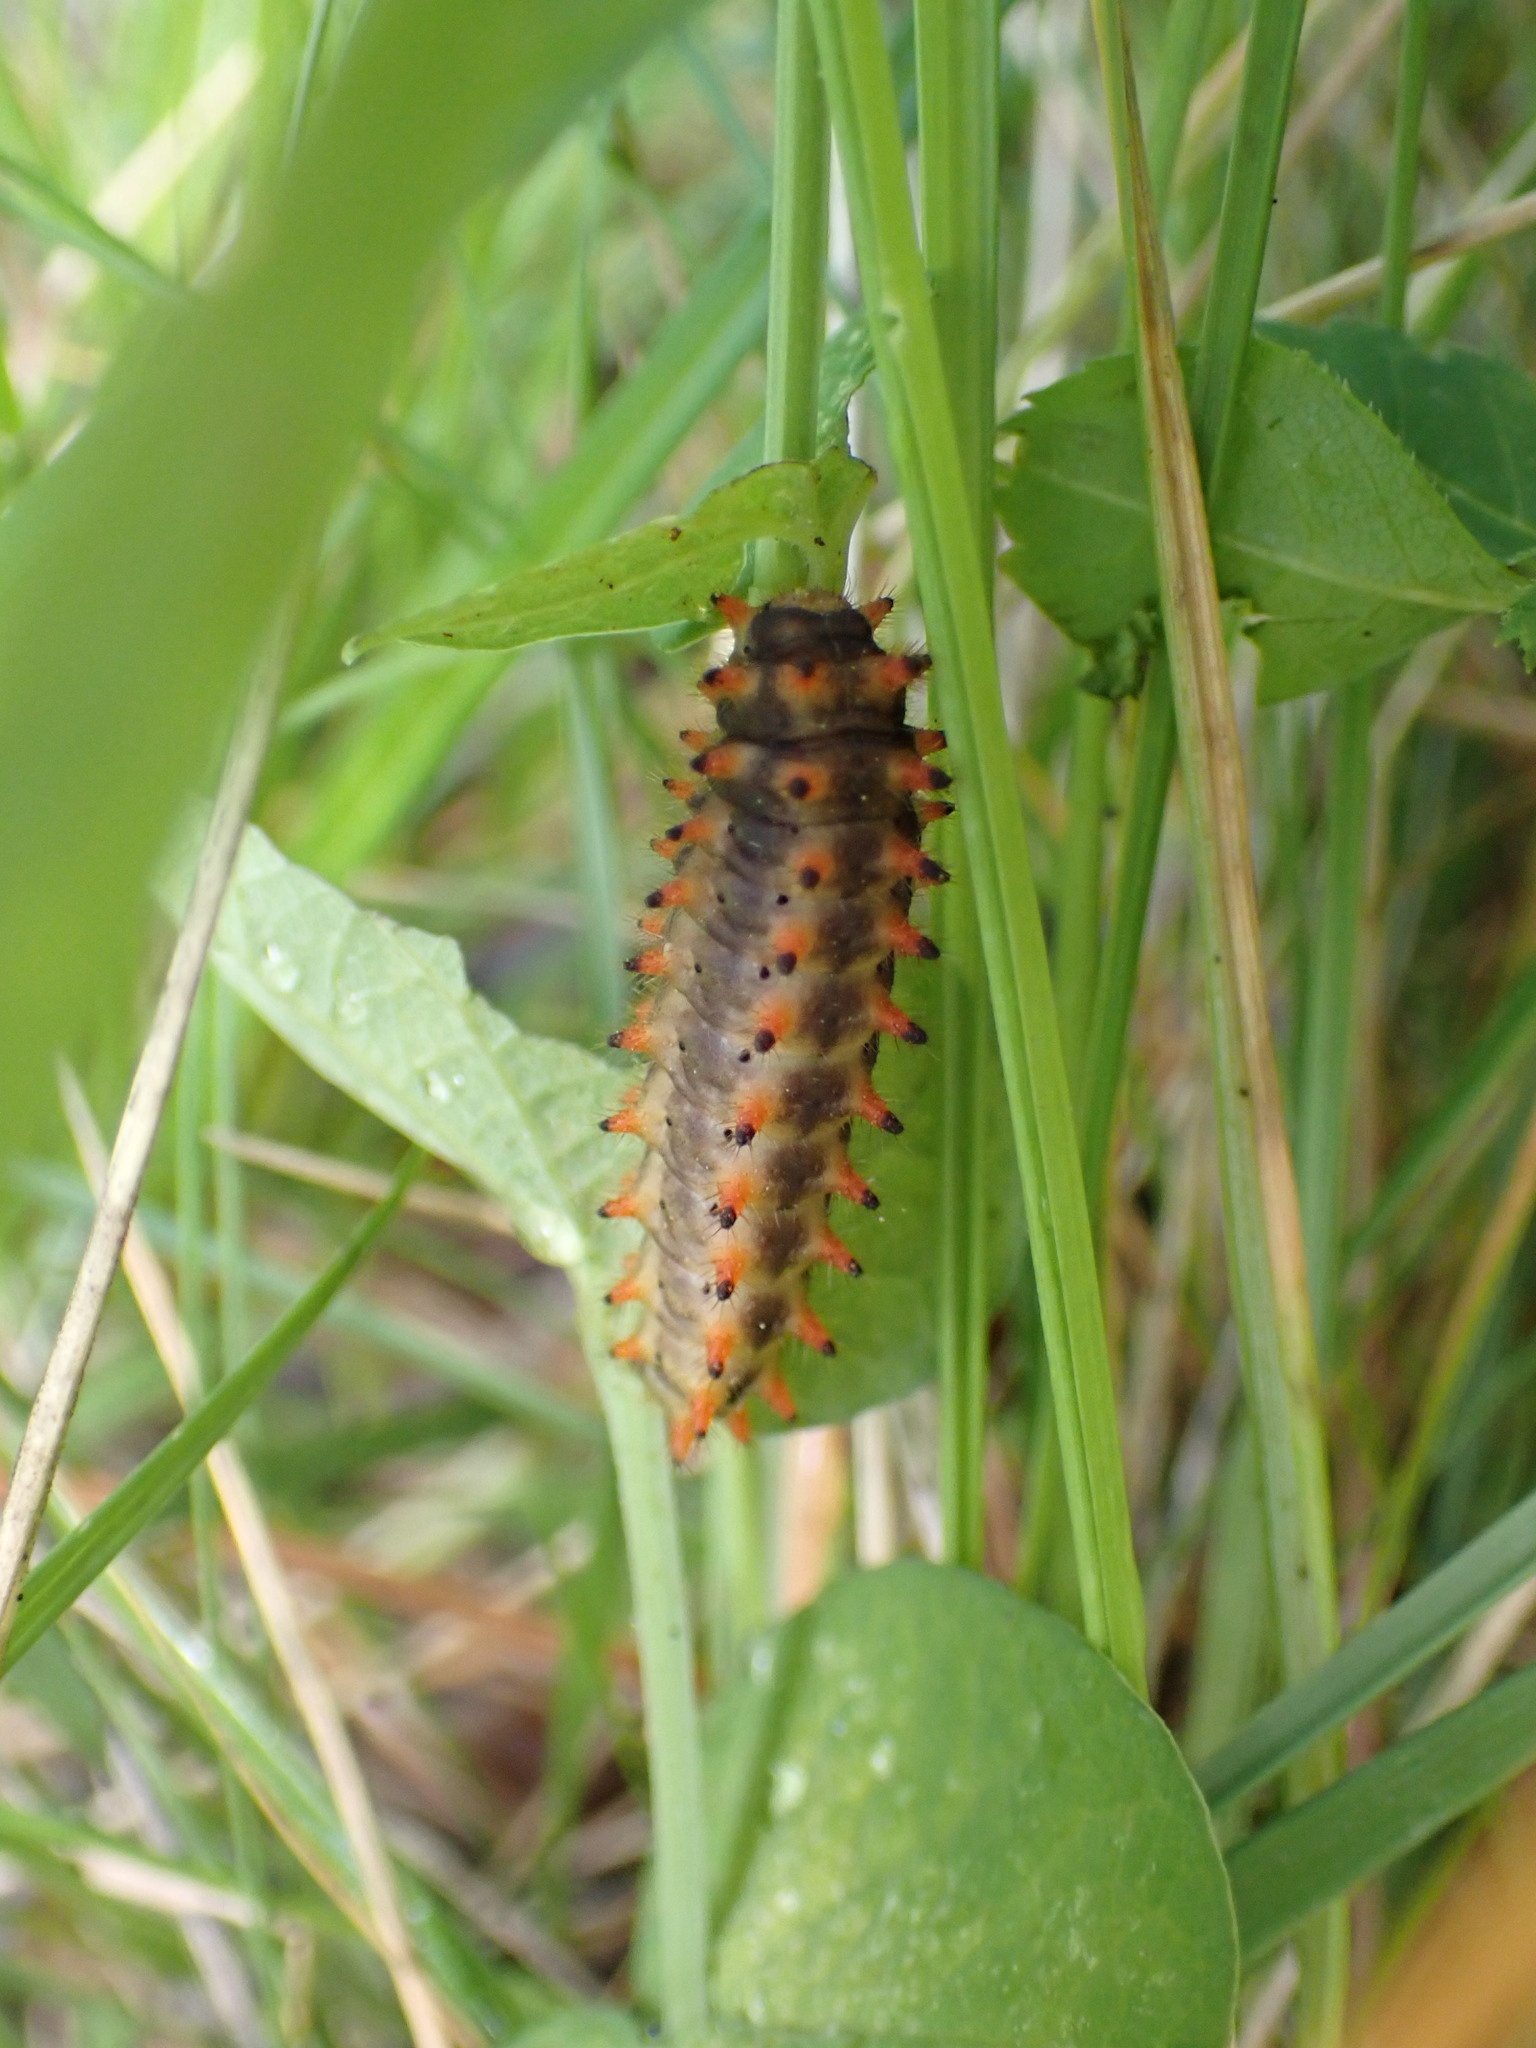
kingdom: Animalia
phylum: Arthropoda
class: Insecta
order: Lepidoptera
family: Papilionidae
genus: Zerynthia
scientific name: Zerynthia polyxena
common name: Southern festoon
